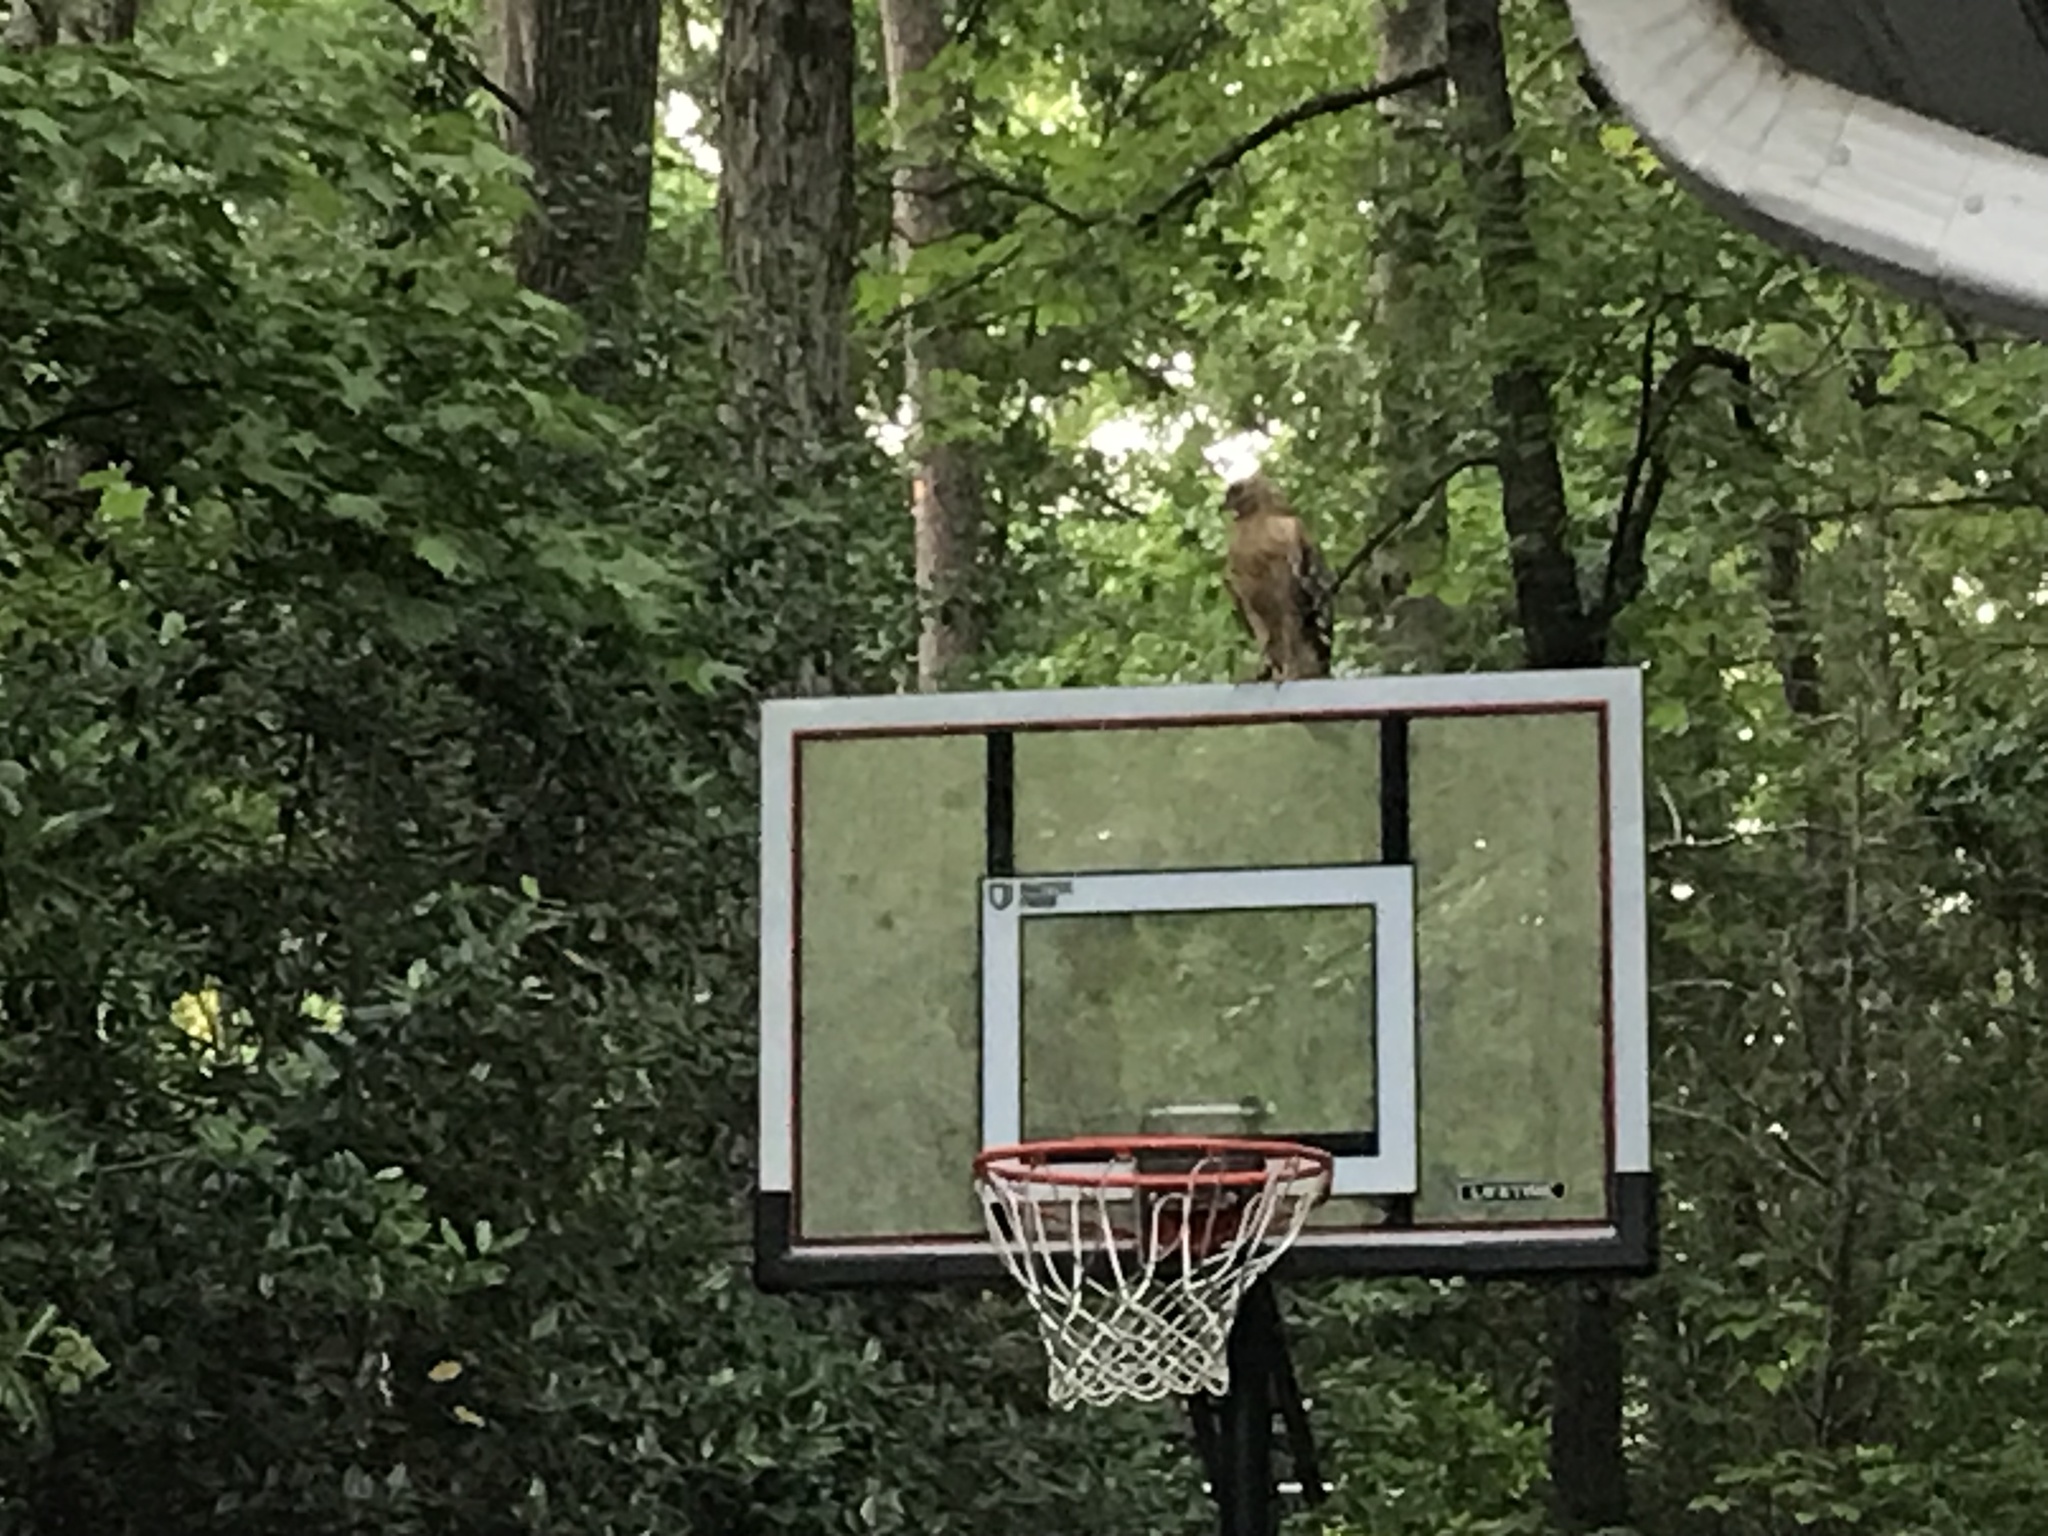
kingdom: Animalia
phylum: Chordata
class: Aves
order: Accipitriformes
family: Accipitridae
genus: Buteo
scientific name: Buteo lineatus
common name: Red-shouldered hawk
